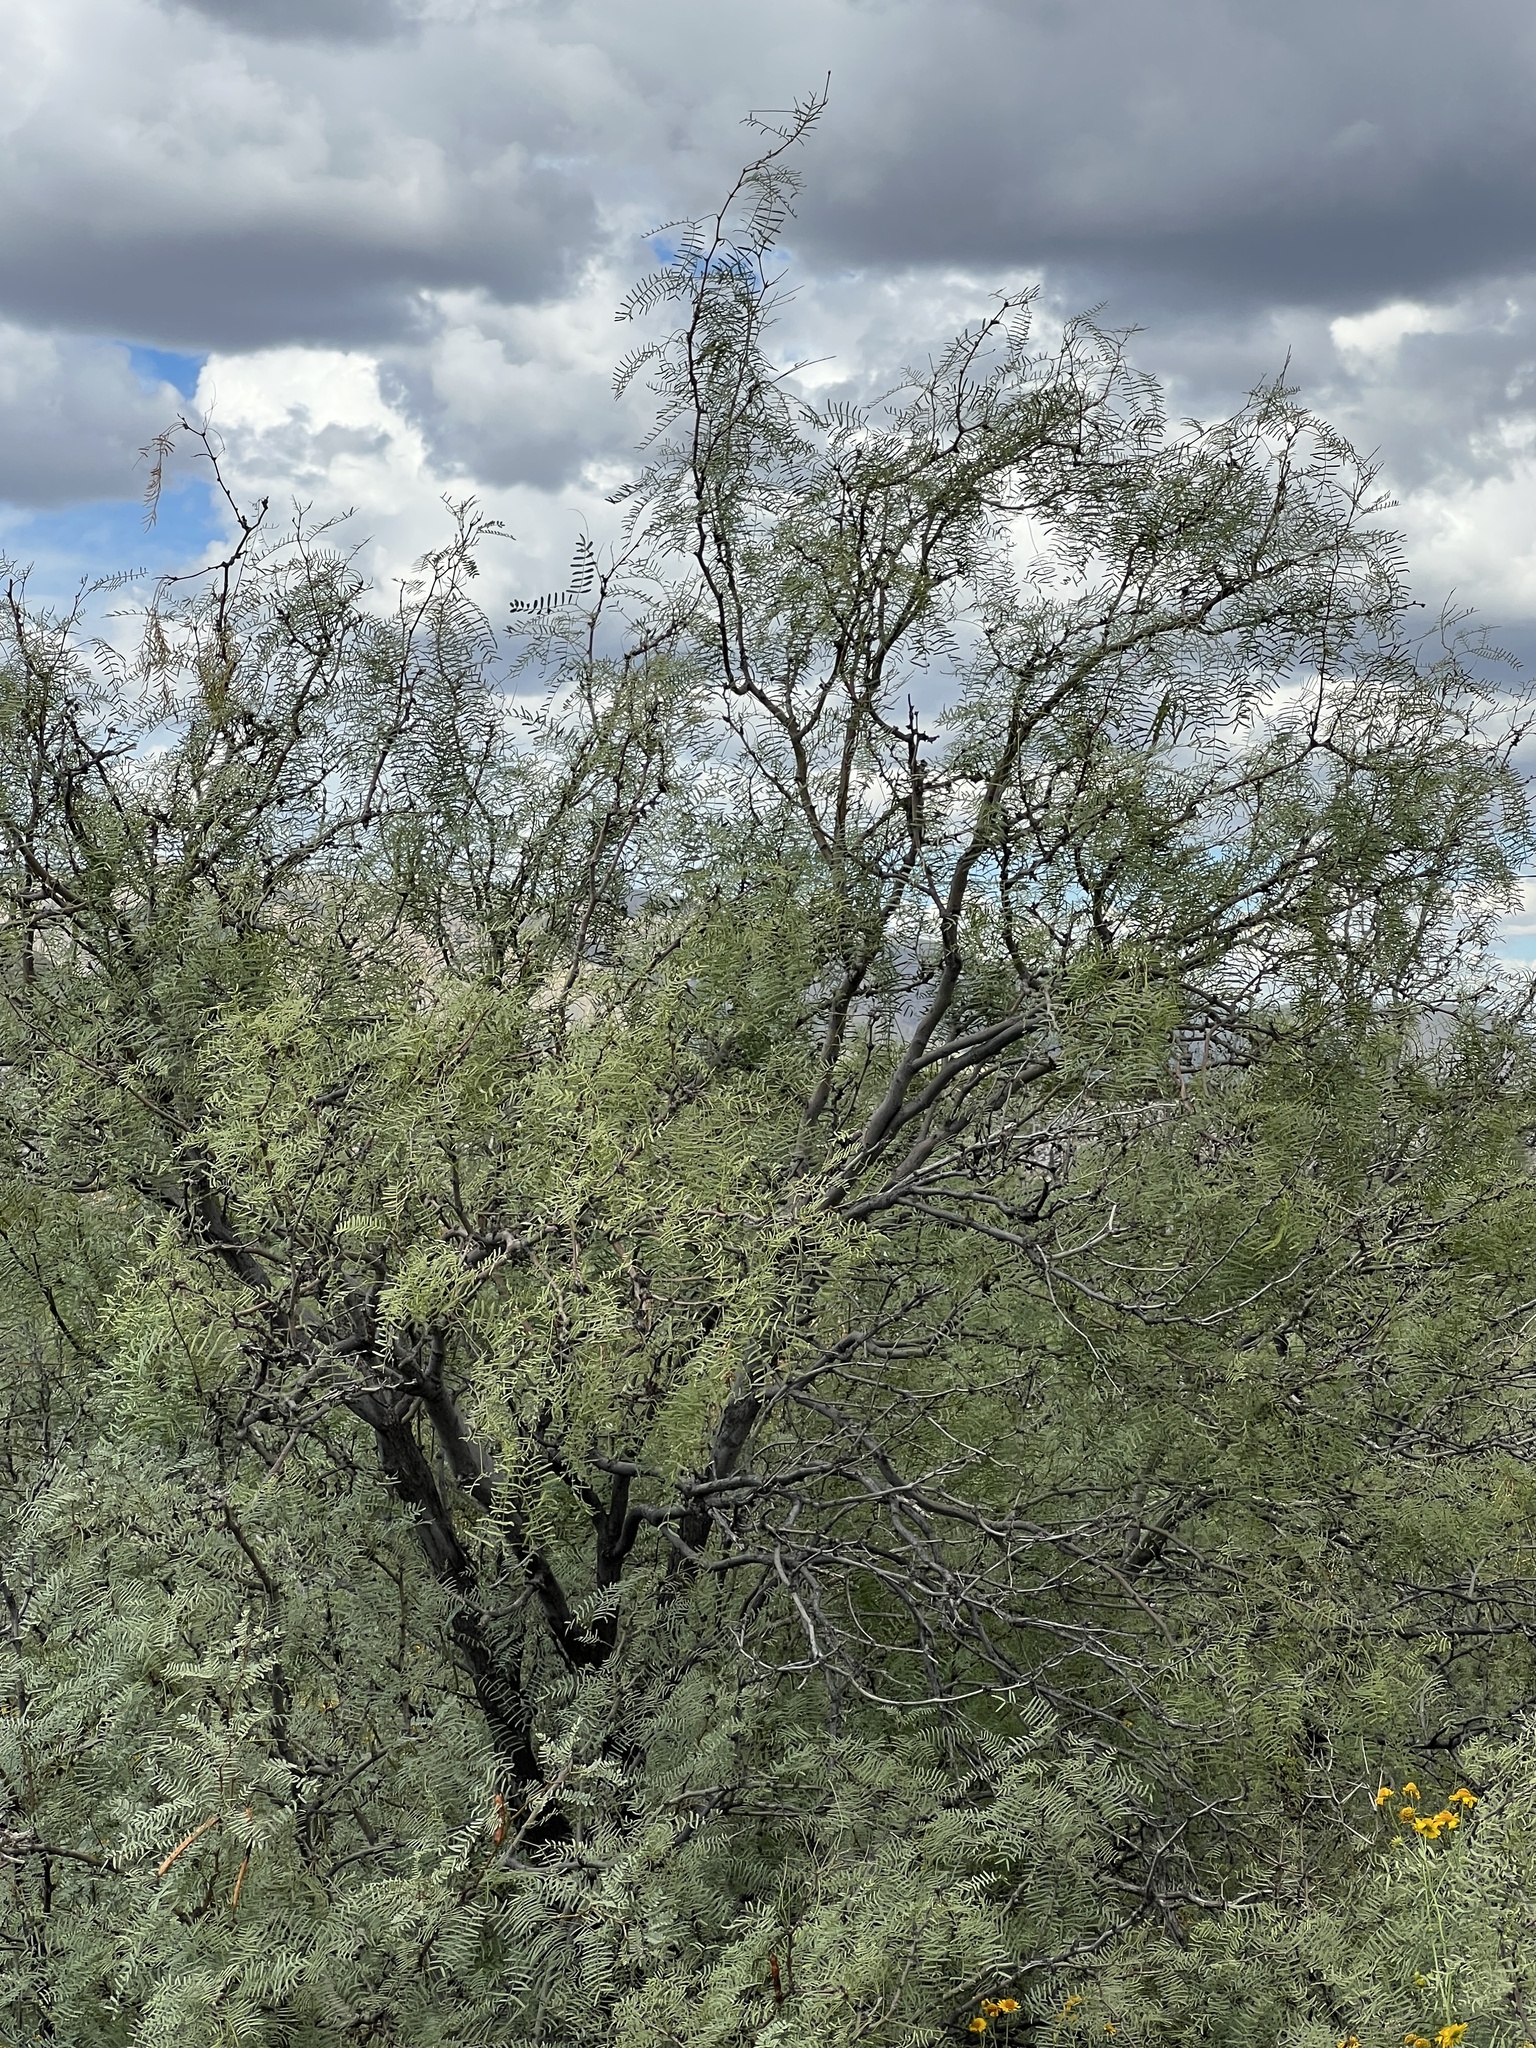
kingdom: Plantae
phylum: Tracheophyta
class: Magnoliopsida
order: Fabales
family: Fabaceae
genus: Prosopis
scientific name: Prosopis glandulosa
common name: Honey mesquite
